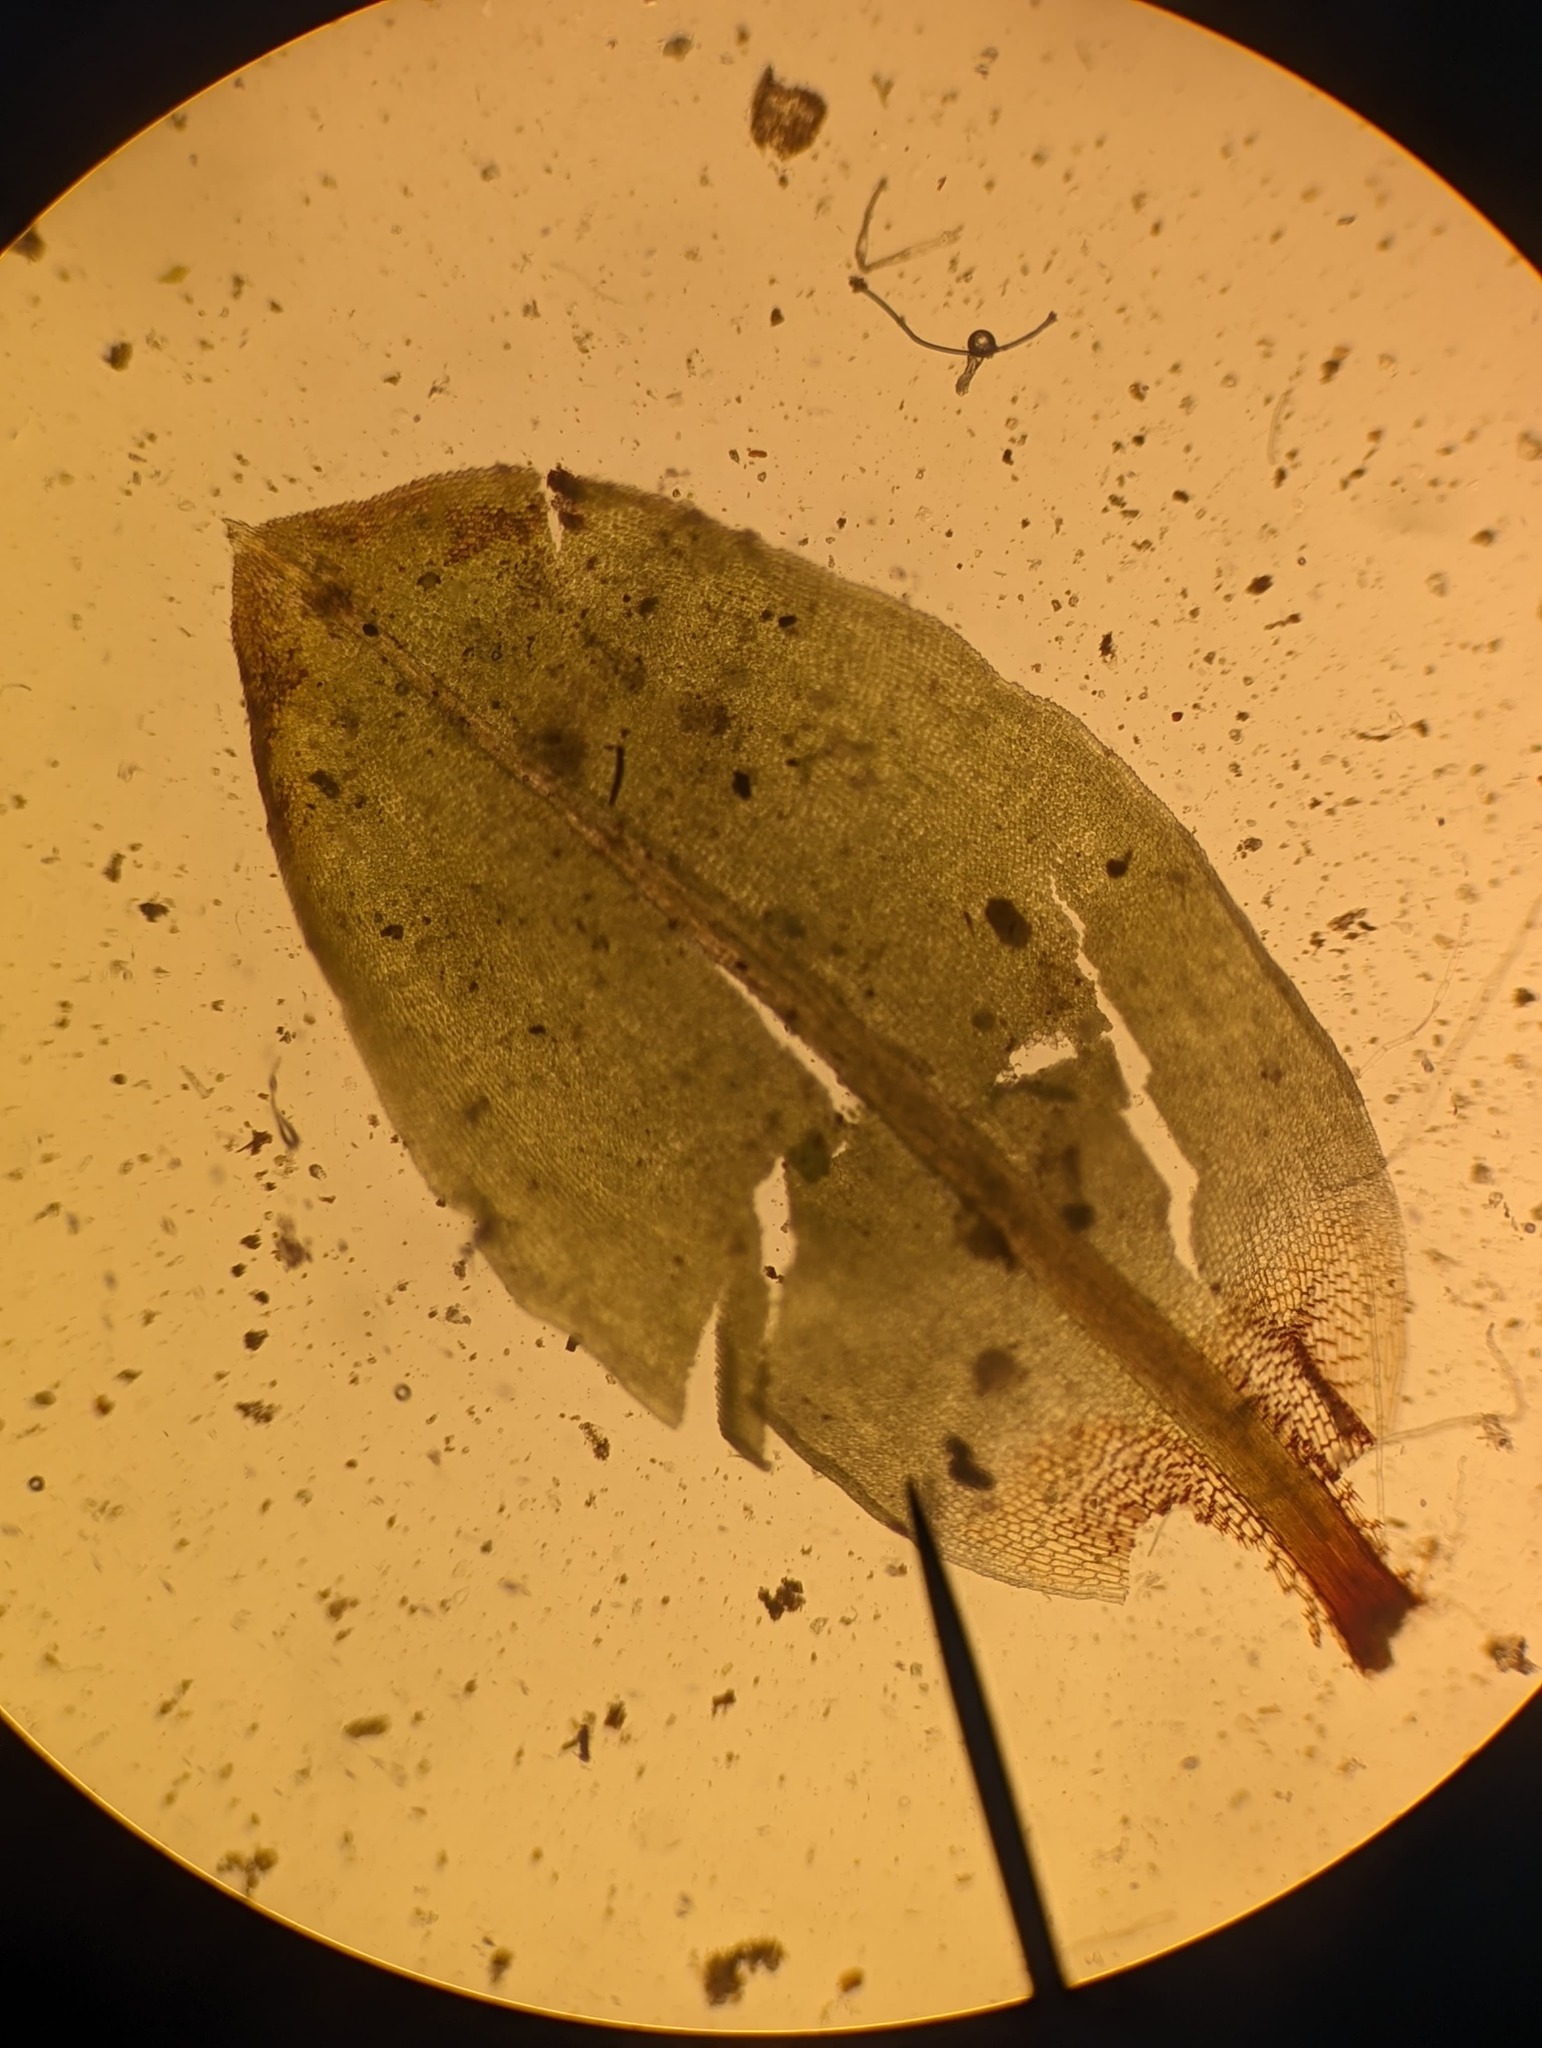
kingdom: Plantae
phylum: Bryophyta
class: Bryopsida
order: Encalyptales
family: Encalyptaceae
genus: Encalypta
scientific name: Encalypta ciliata
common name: Fringed extinguisher-moss
